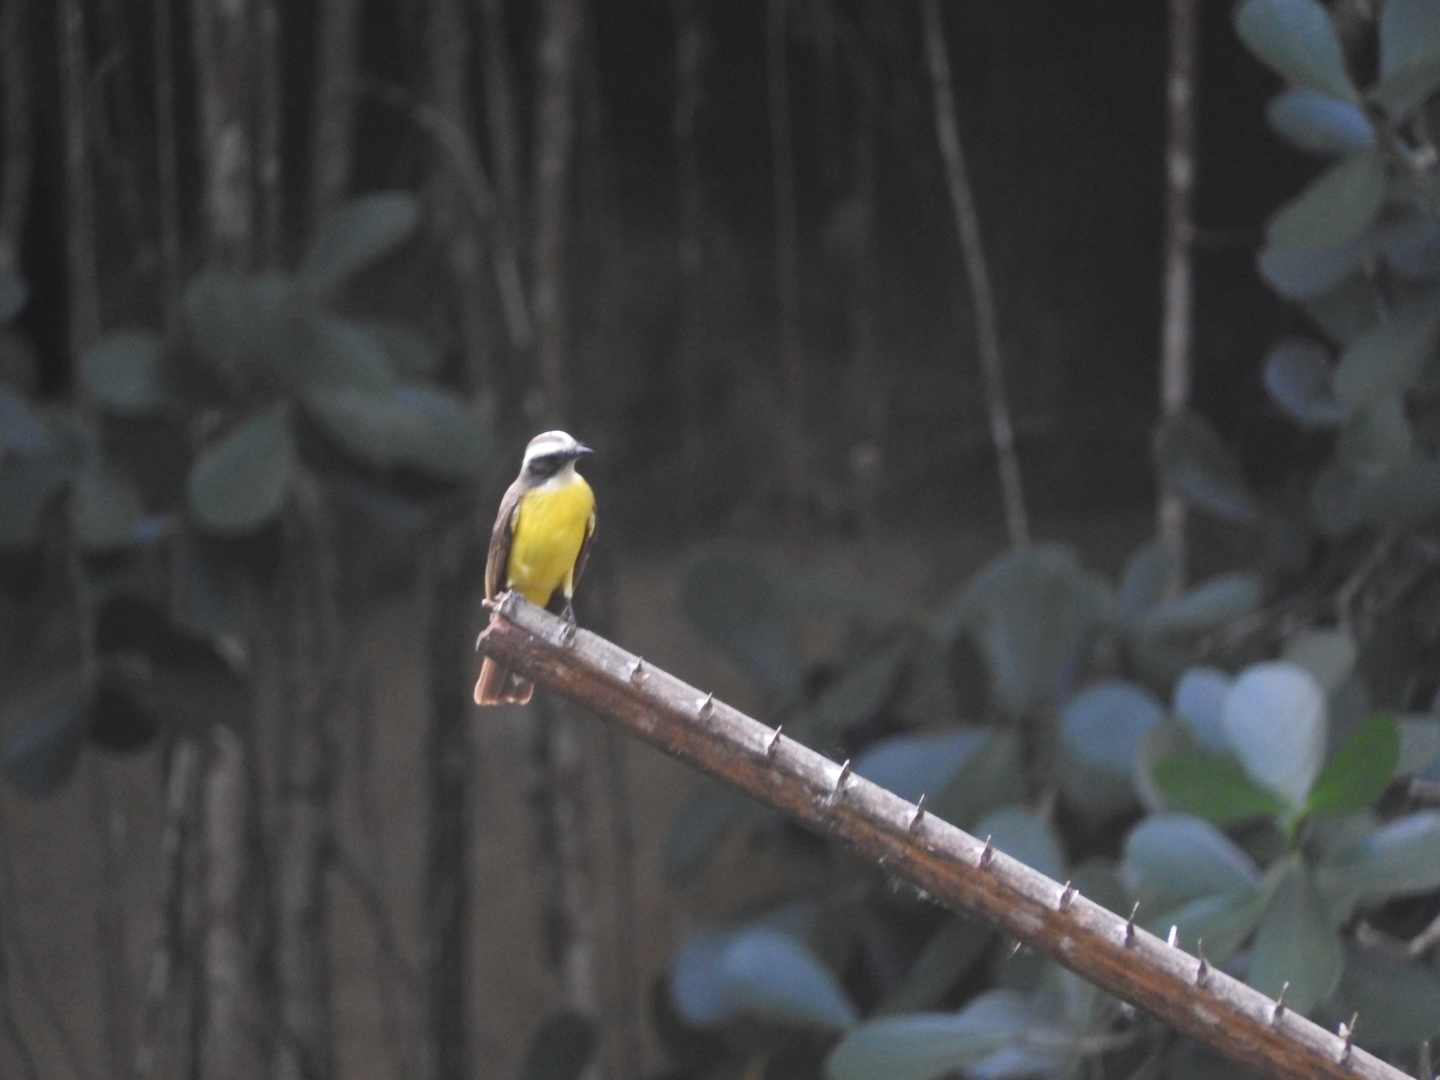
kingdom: Animalia
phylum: Chordata
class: Aves
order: Passeriformes
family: Tyrannidae
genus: Myiozetetes
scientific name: Myiozetetes similis
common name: Social flycatcher
